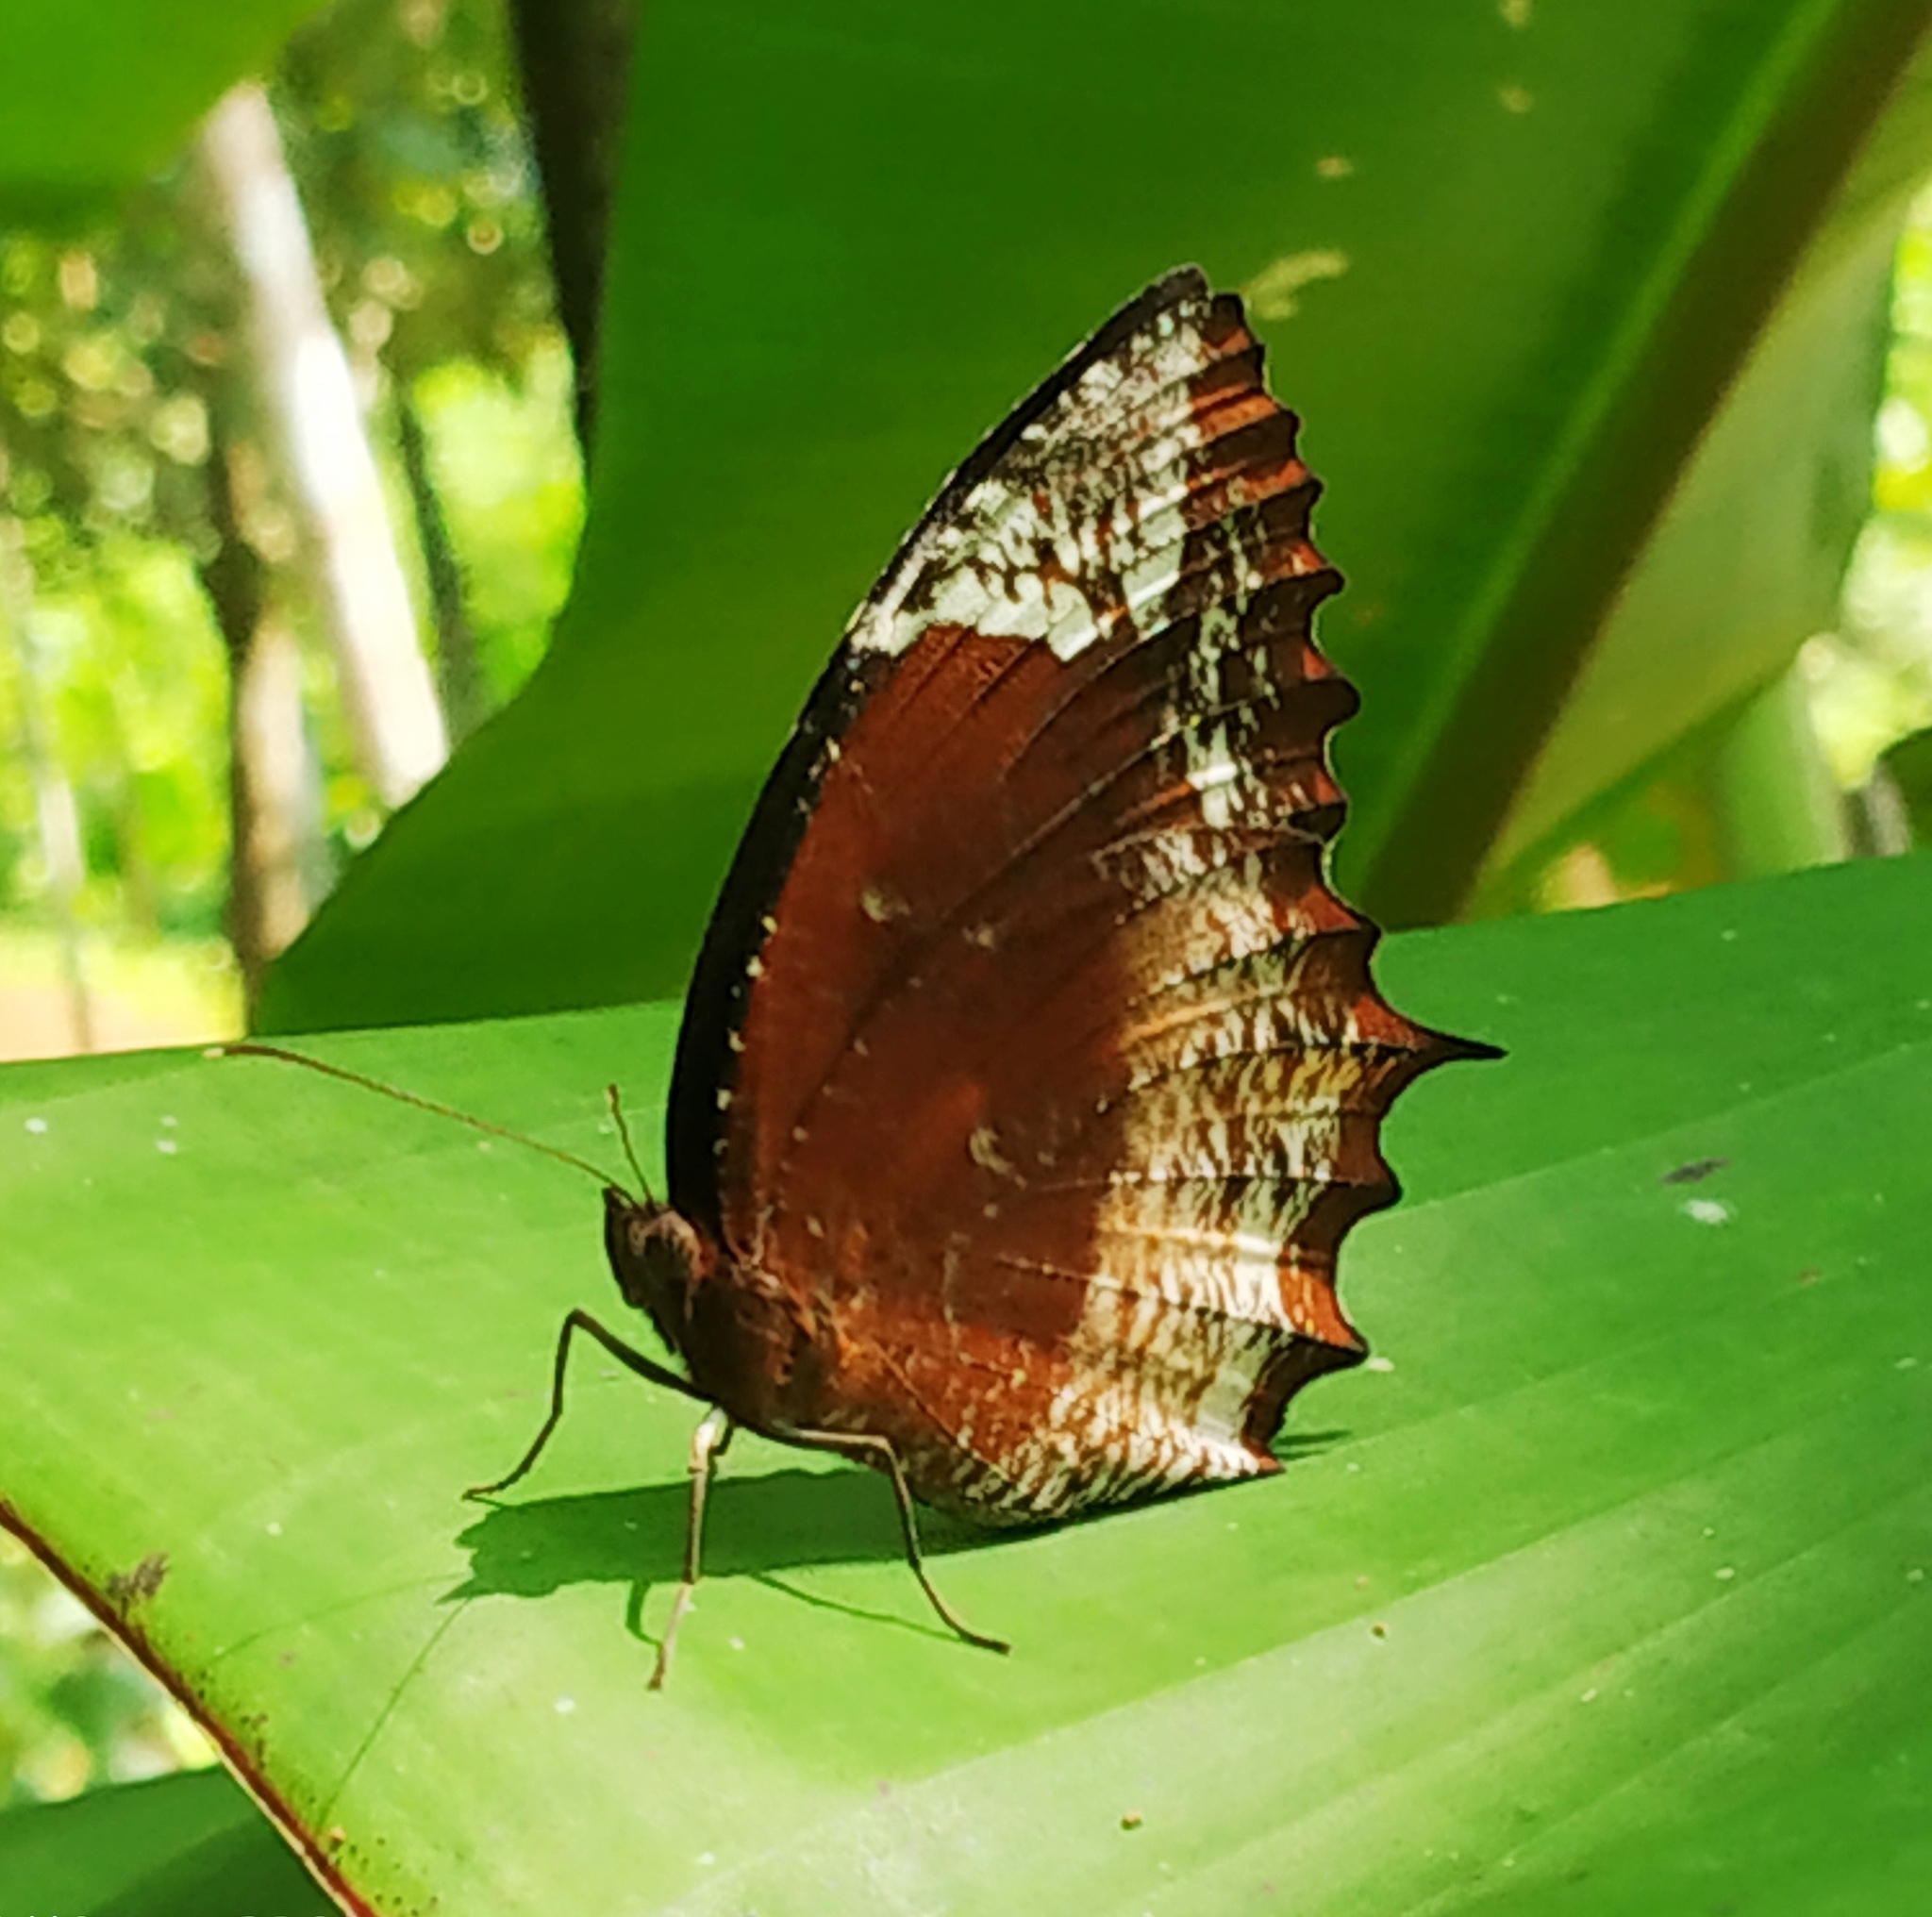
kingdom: Animalia
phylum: Arthropoda
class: Insecta
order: Lepidoptera
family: Nymphalidae
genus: Elymnias
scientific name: Elymnias caudata
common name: Tailed palmfly
